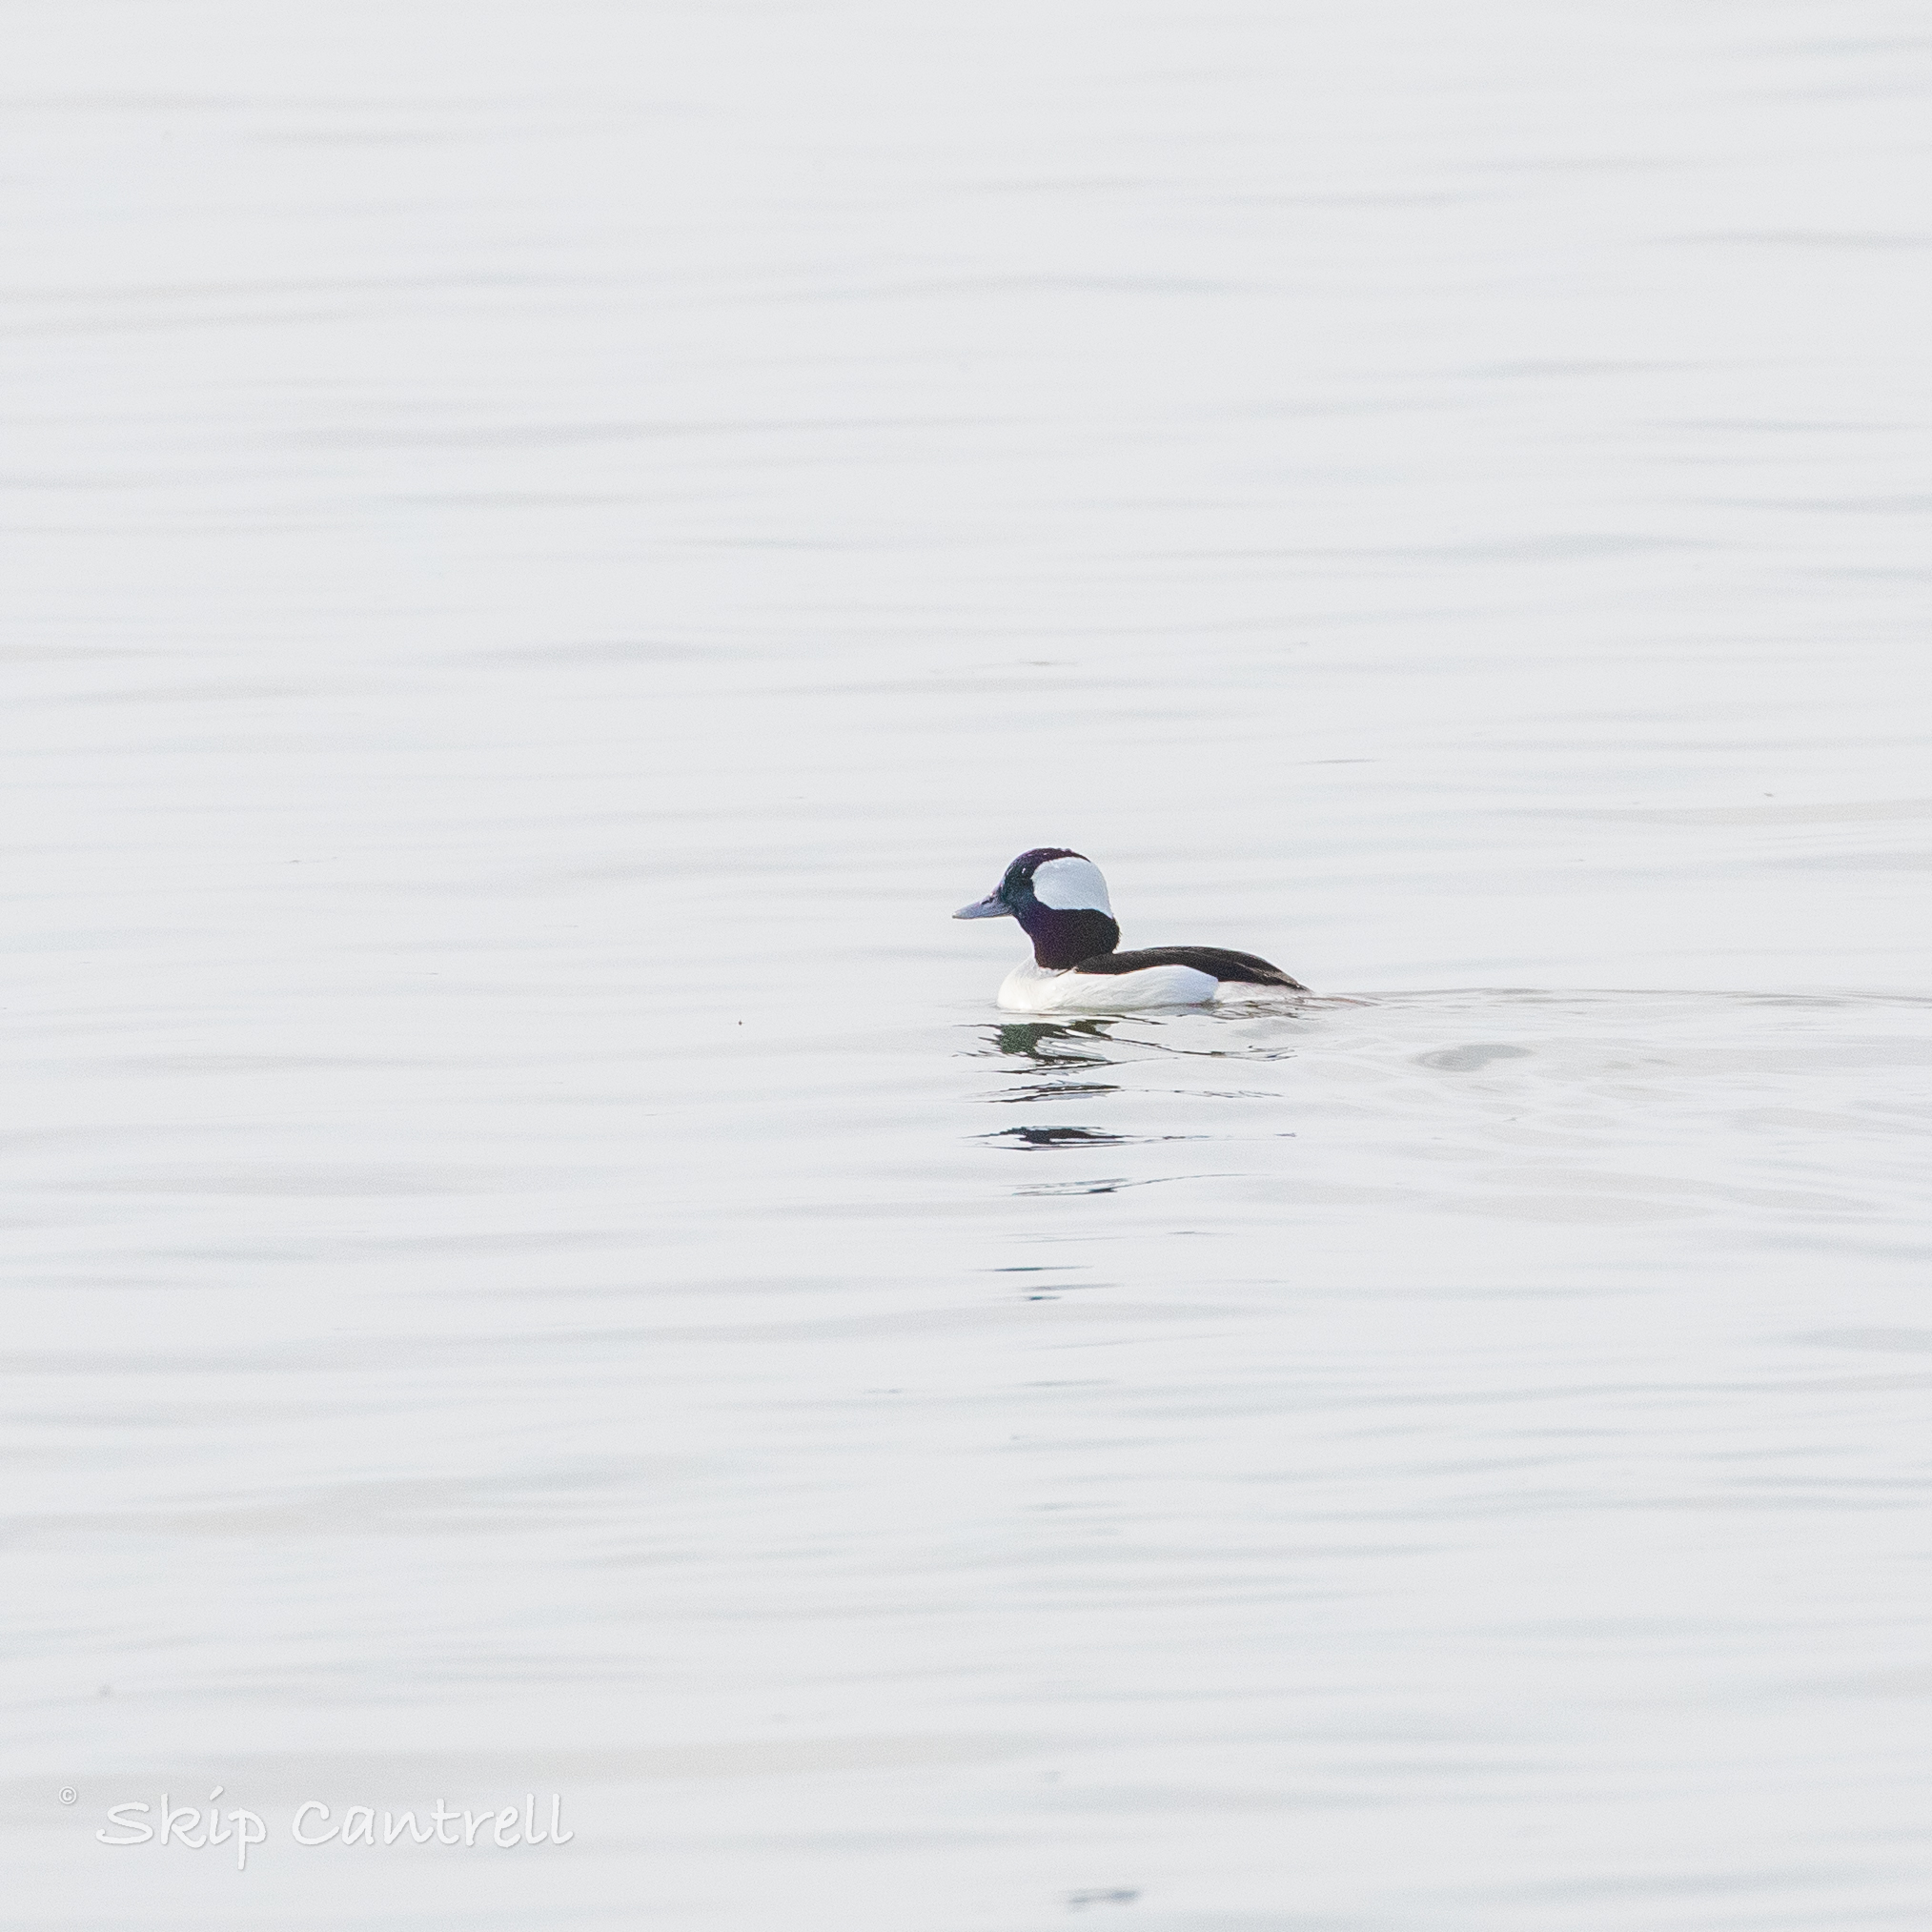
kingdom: Animalia
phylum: Chordata
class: Aves
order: Anseriformes
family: Anatidae
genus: Bucephala
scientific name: Bucephala albeola
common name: Bufflehead
